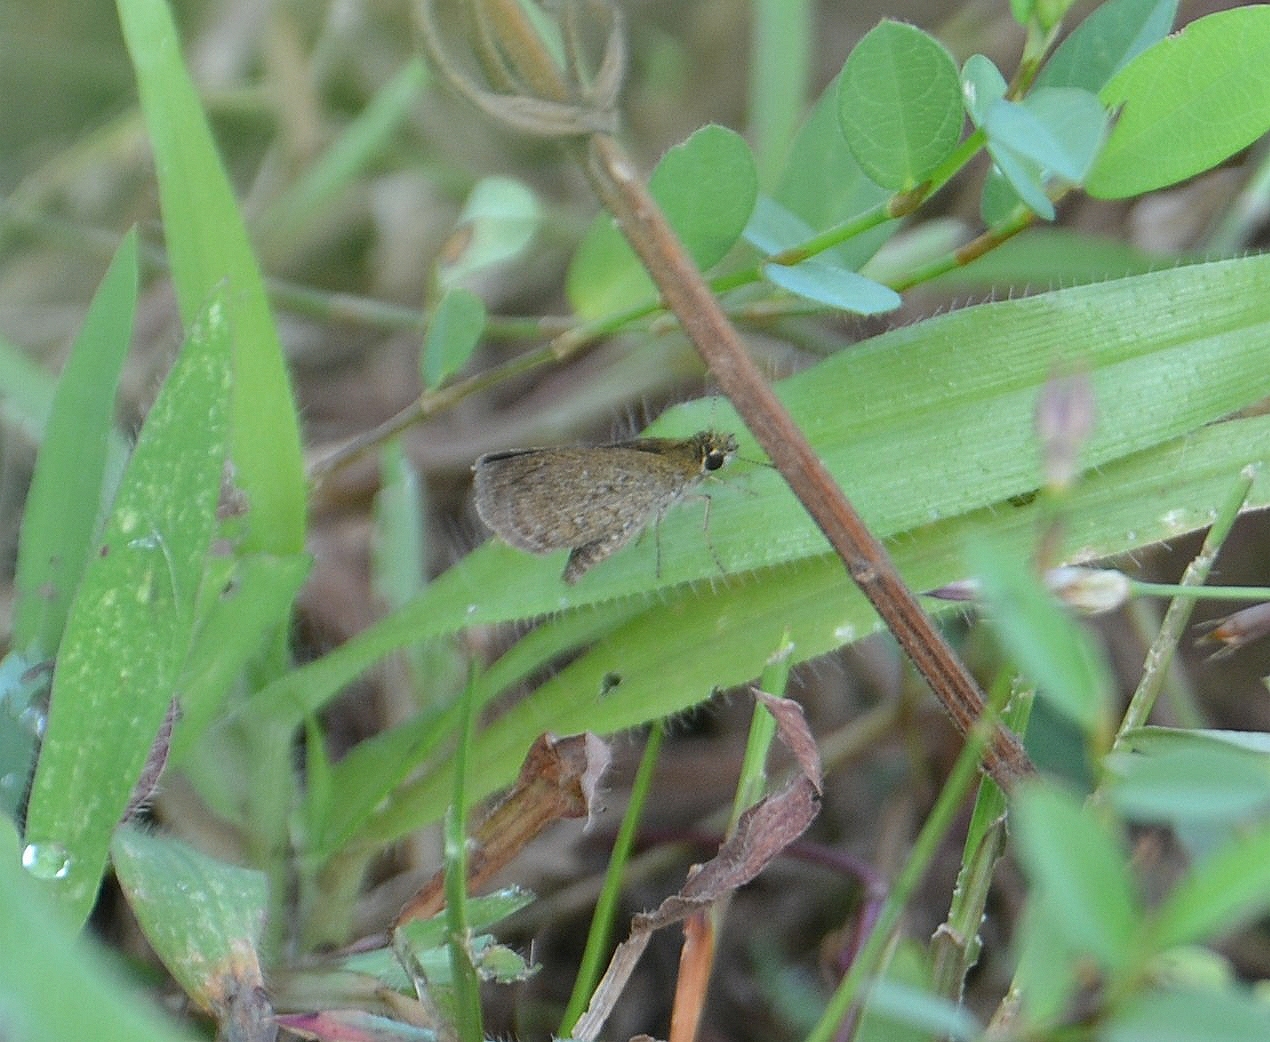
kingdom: Animalia
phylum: Arthropoda
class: Insecta
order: Lepidoptera
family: Hesperiidae
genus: Aeromachus
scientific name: Aeromachus pygmaeus
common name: Pygmy scrub hopper
